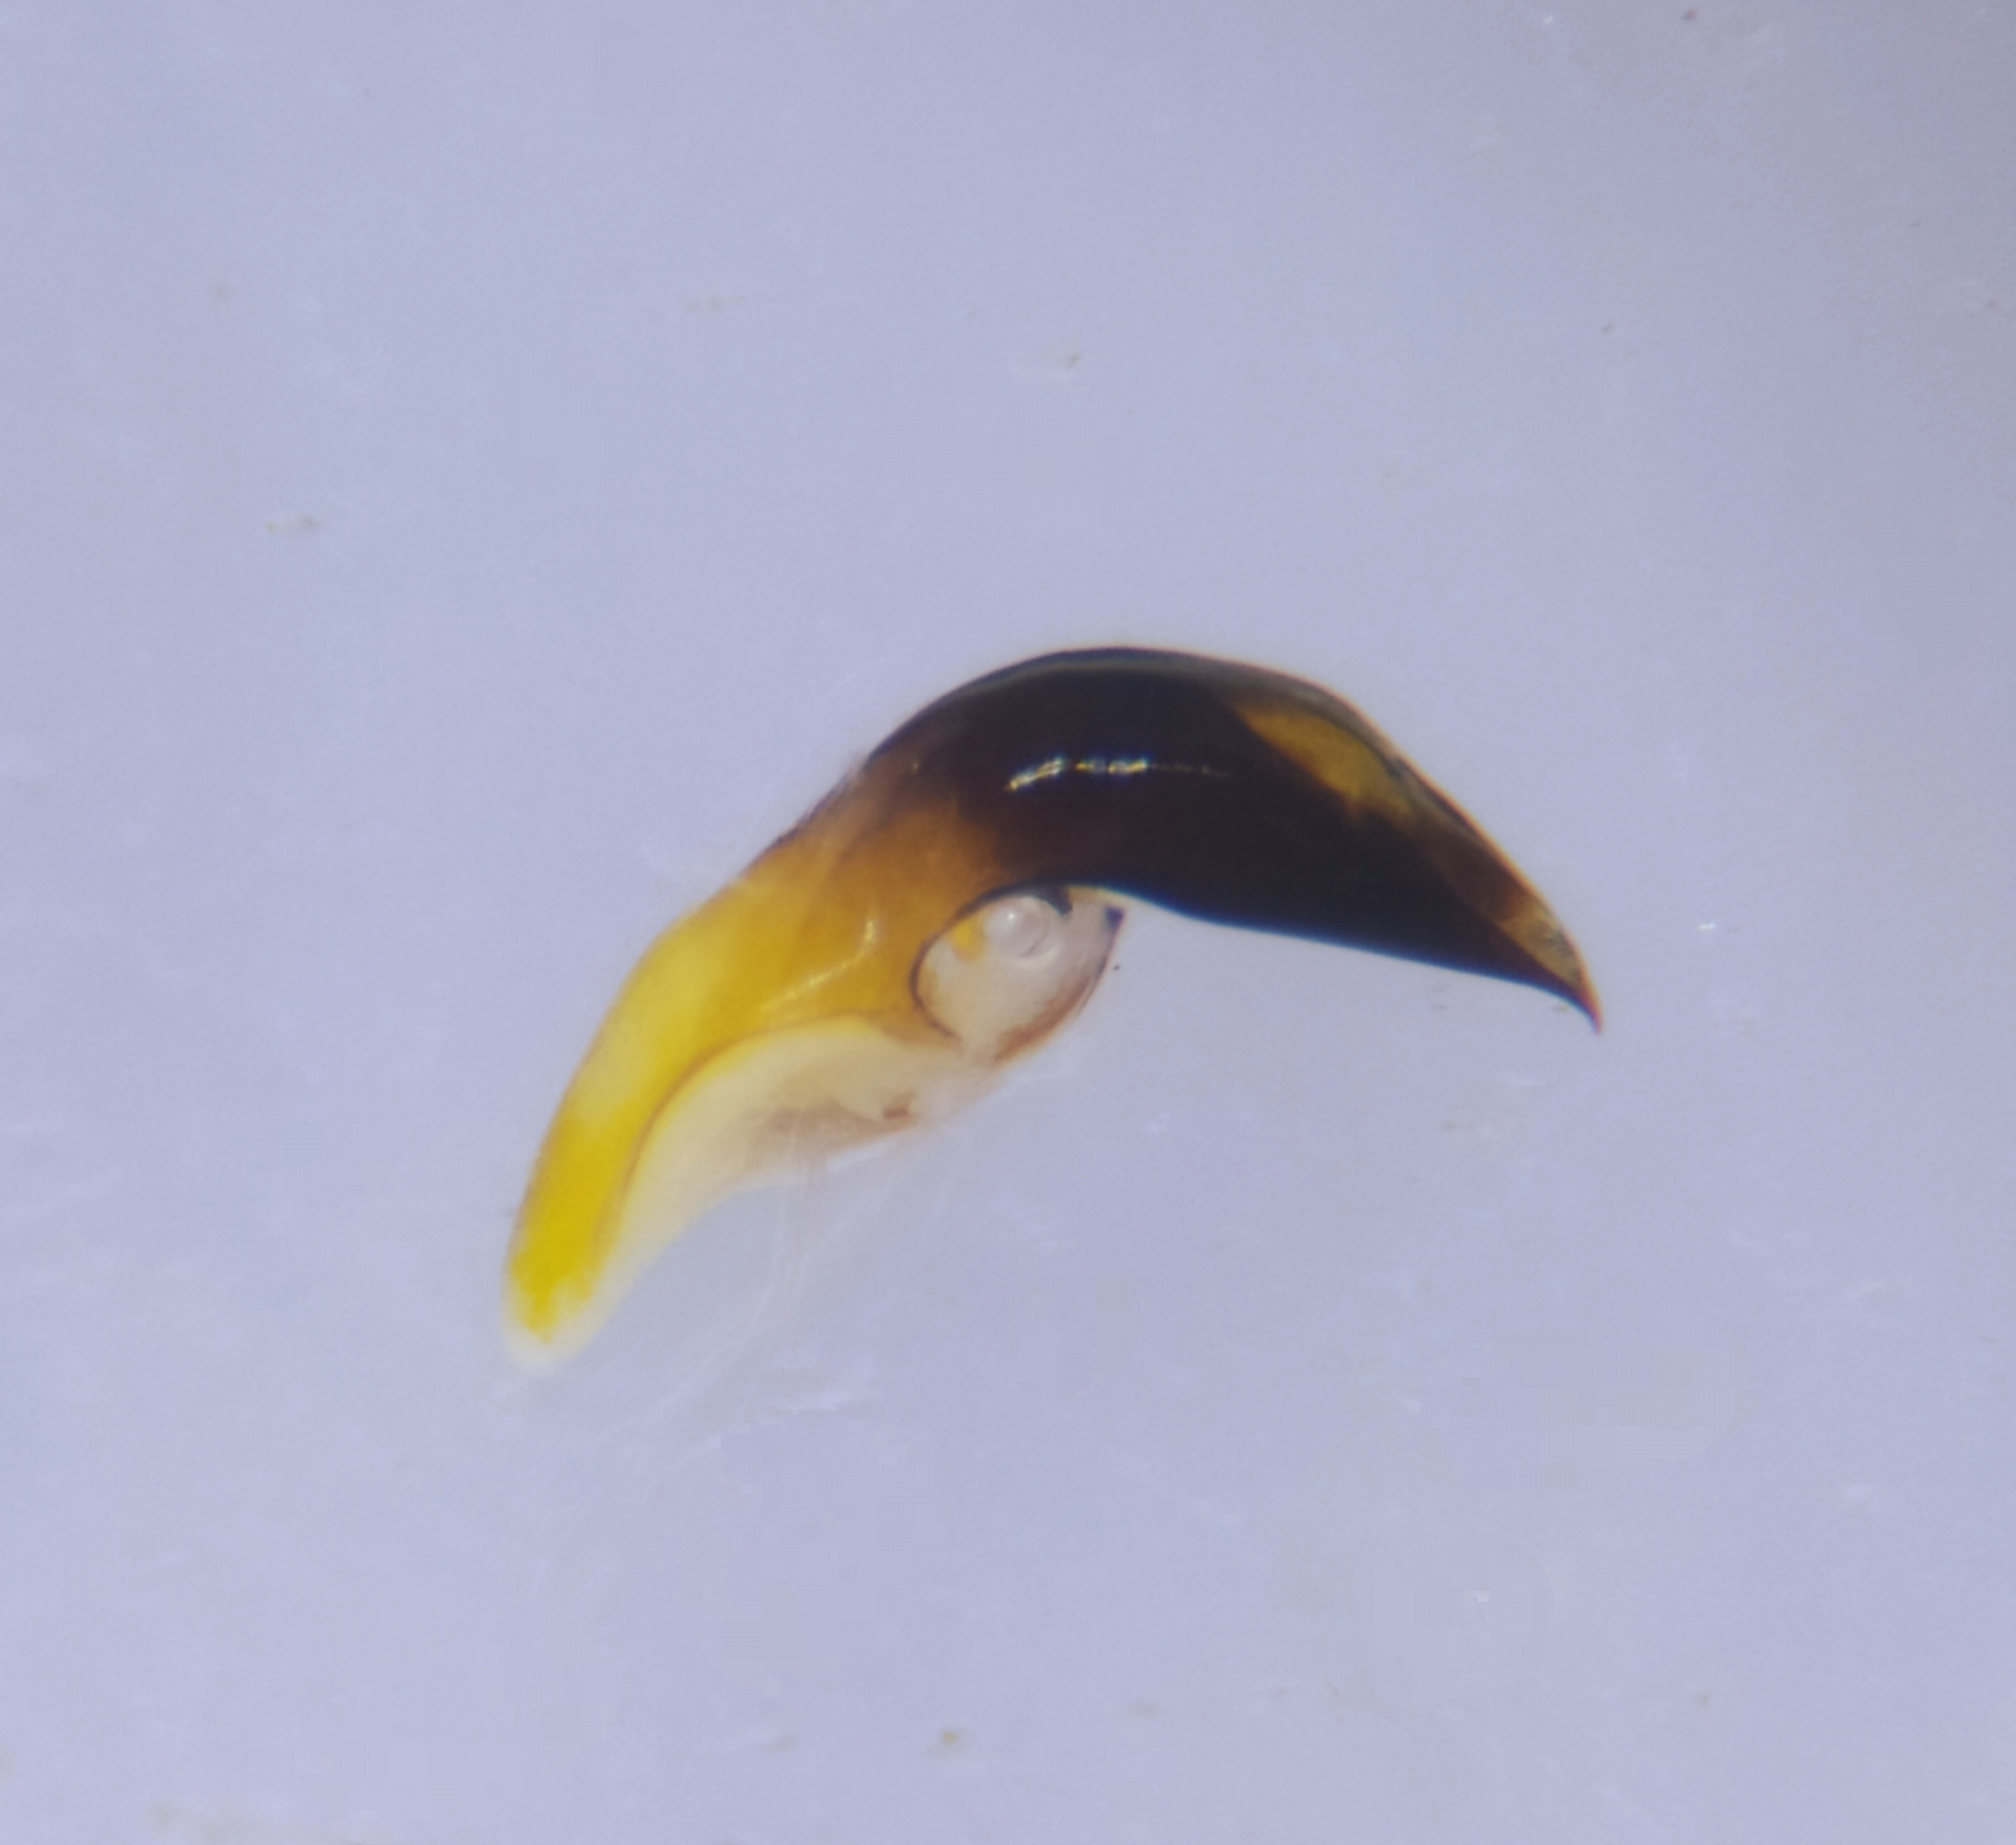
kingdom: Animalia
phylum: Arthropoda
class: Insecta
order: Coleoptera
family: Chrysomelidae
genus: Oulema
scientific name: Oulema melanopus
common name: Cereal leaf beetle
